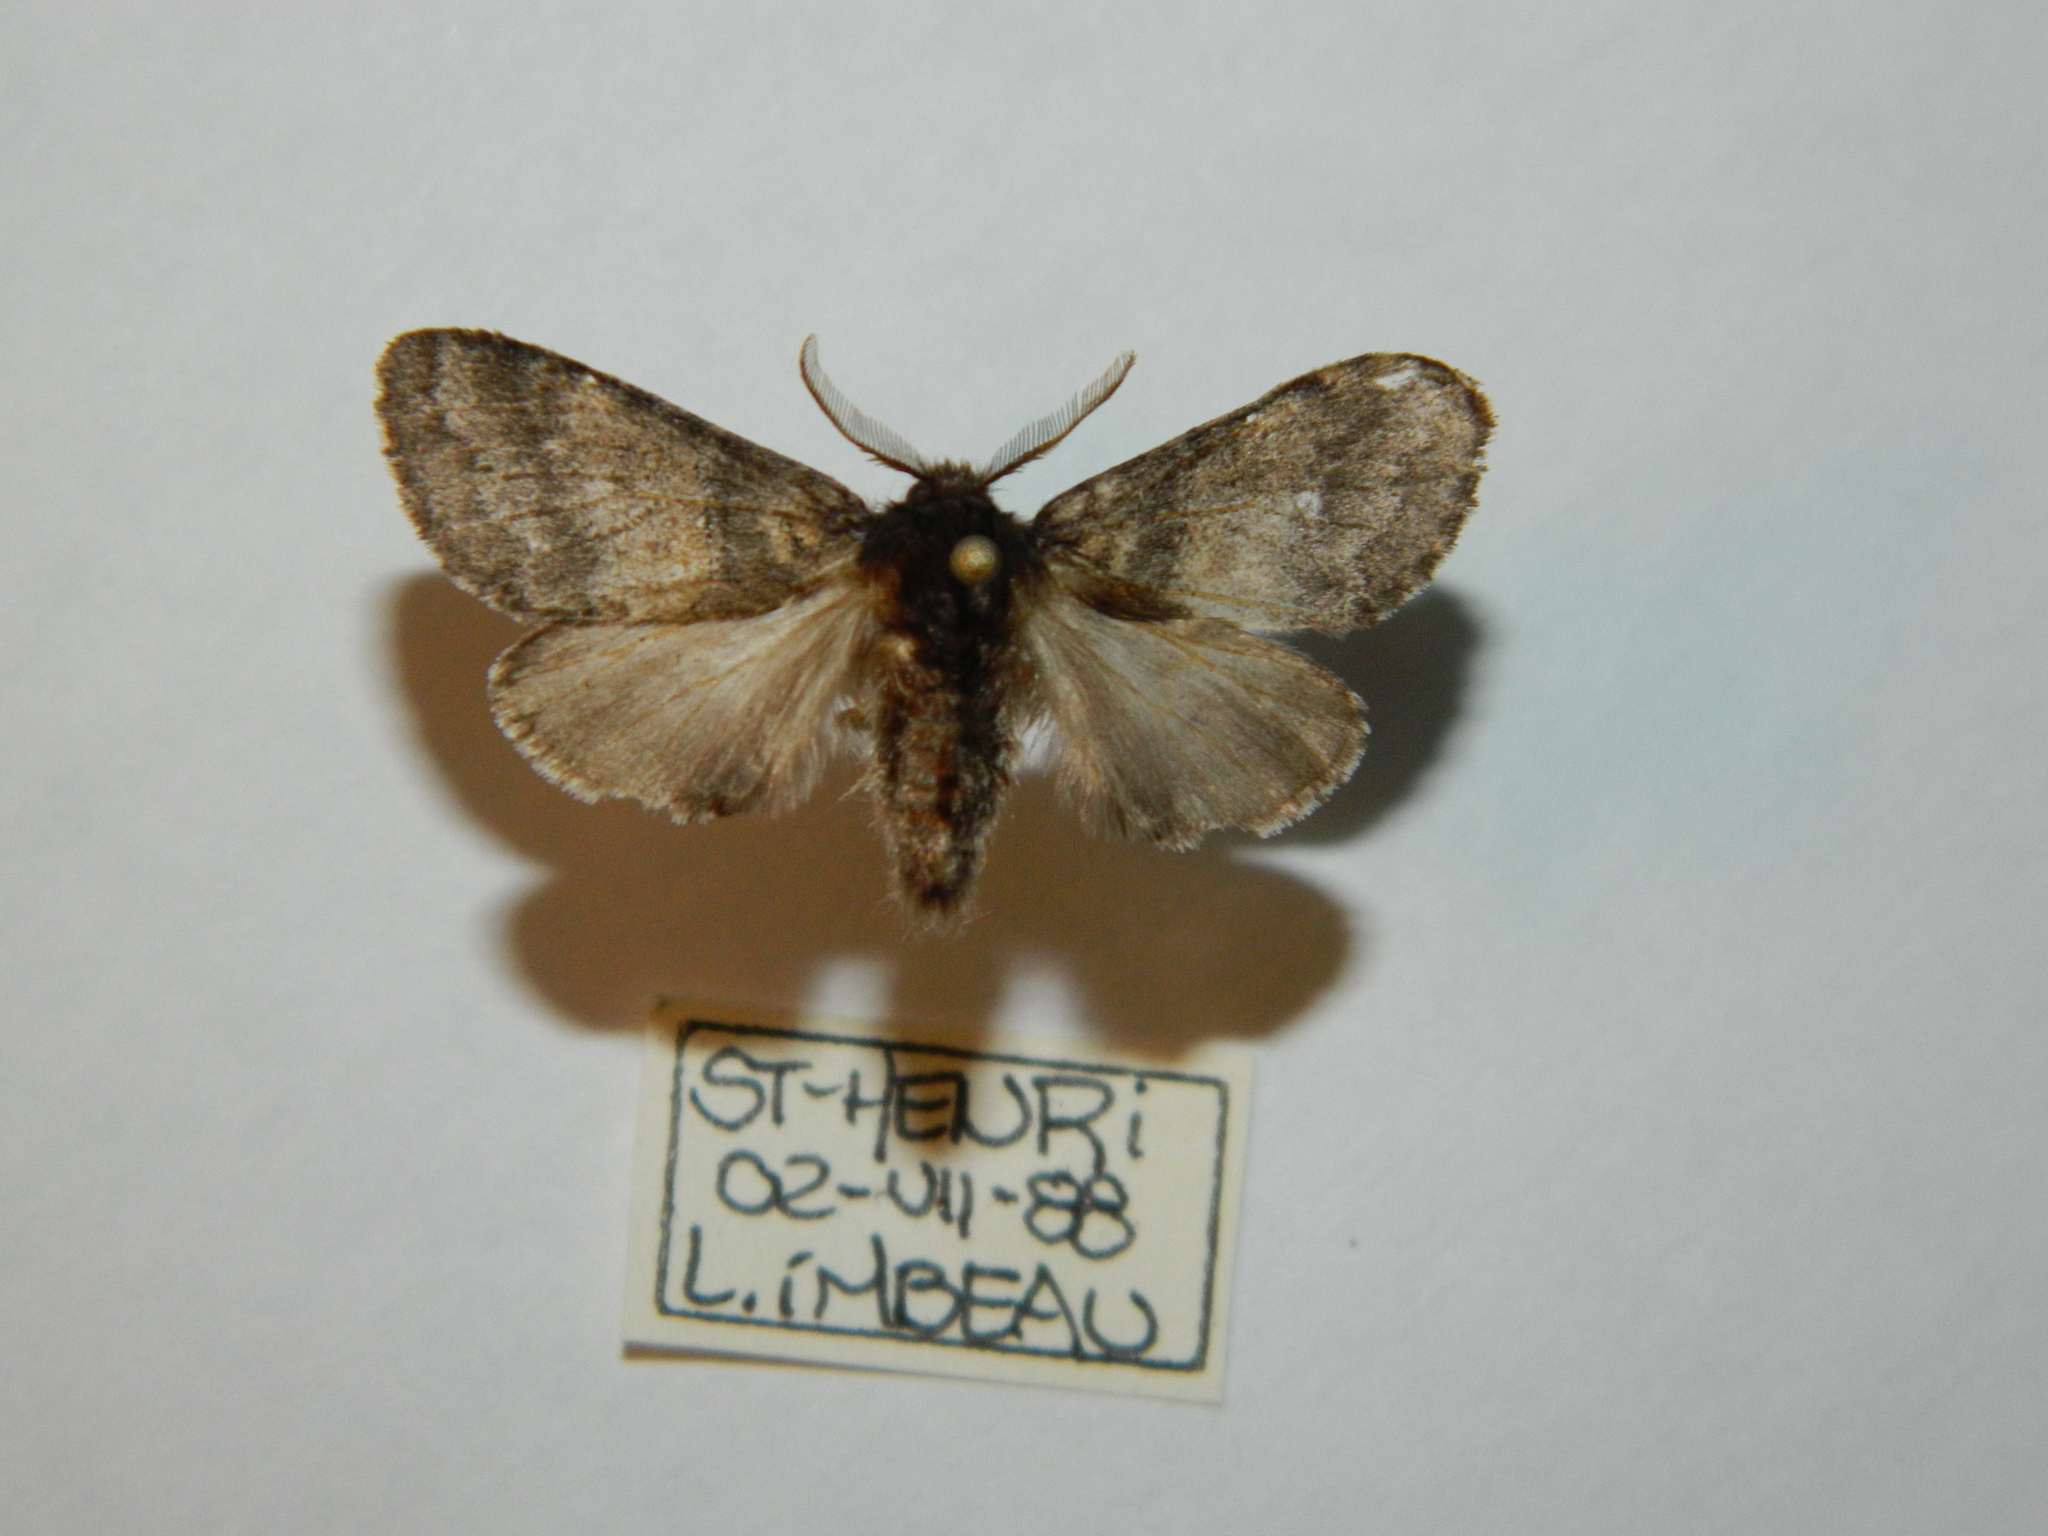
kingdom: Animalia
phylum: Arthropoda
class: Insecta
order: Lepidoptera
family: Notodontidae
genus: Gluphisia
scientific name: Gluphisia septentrionis
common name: Common gluphisia
